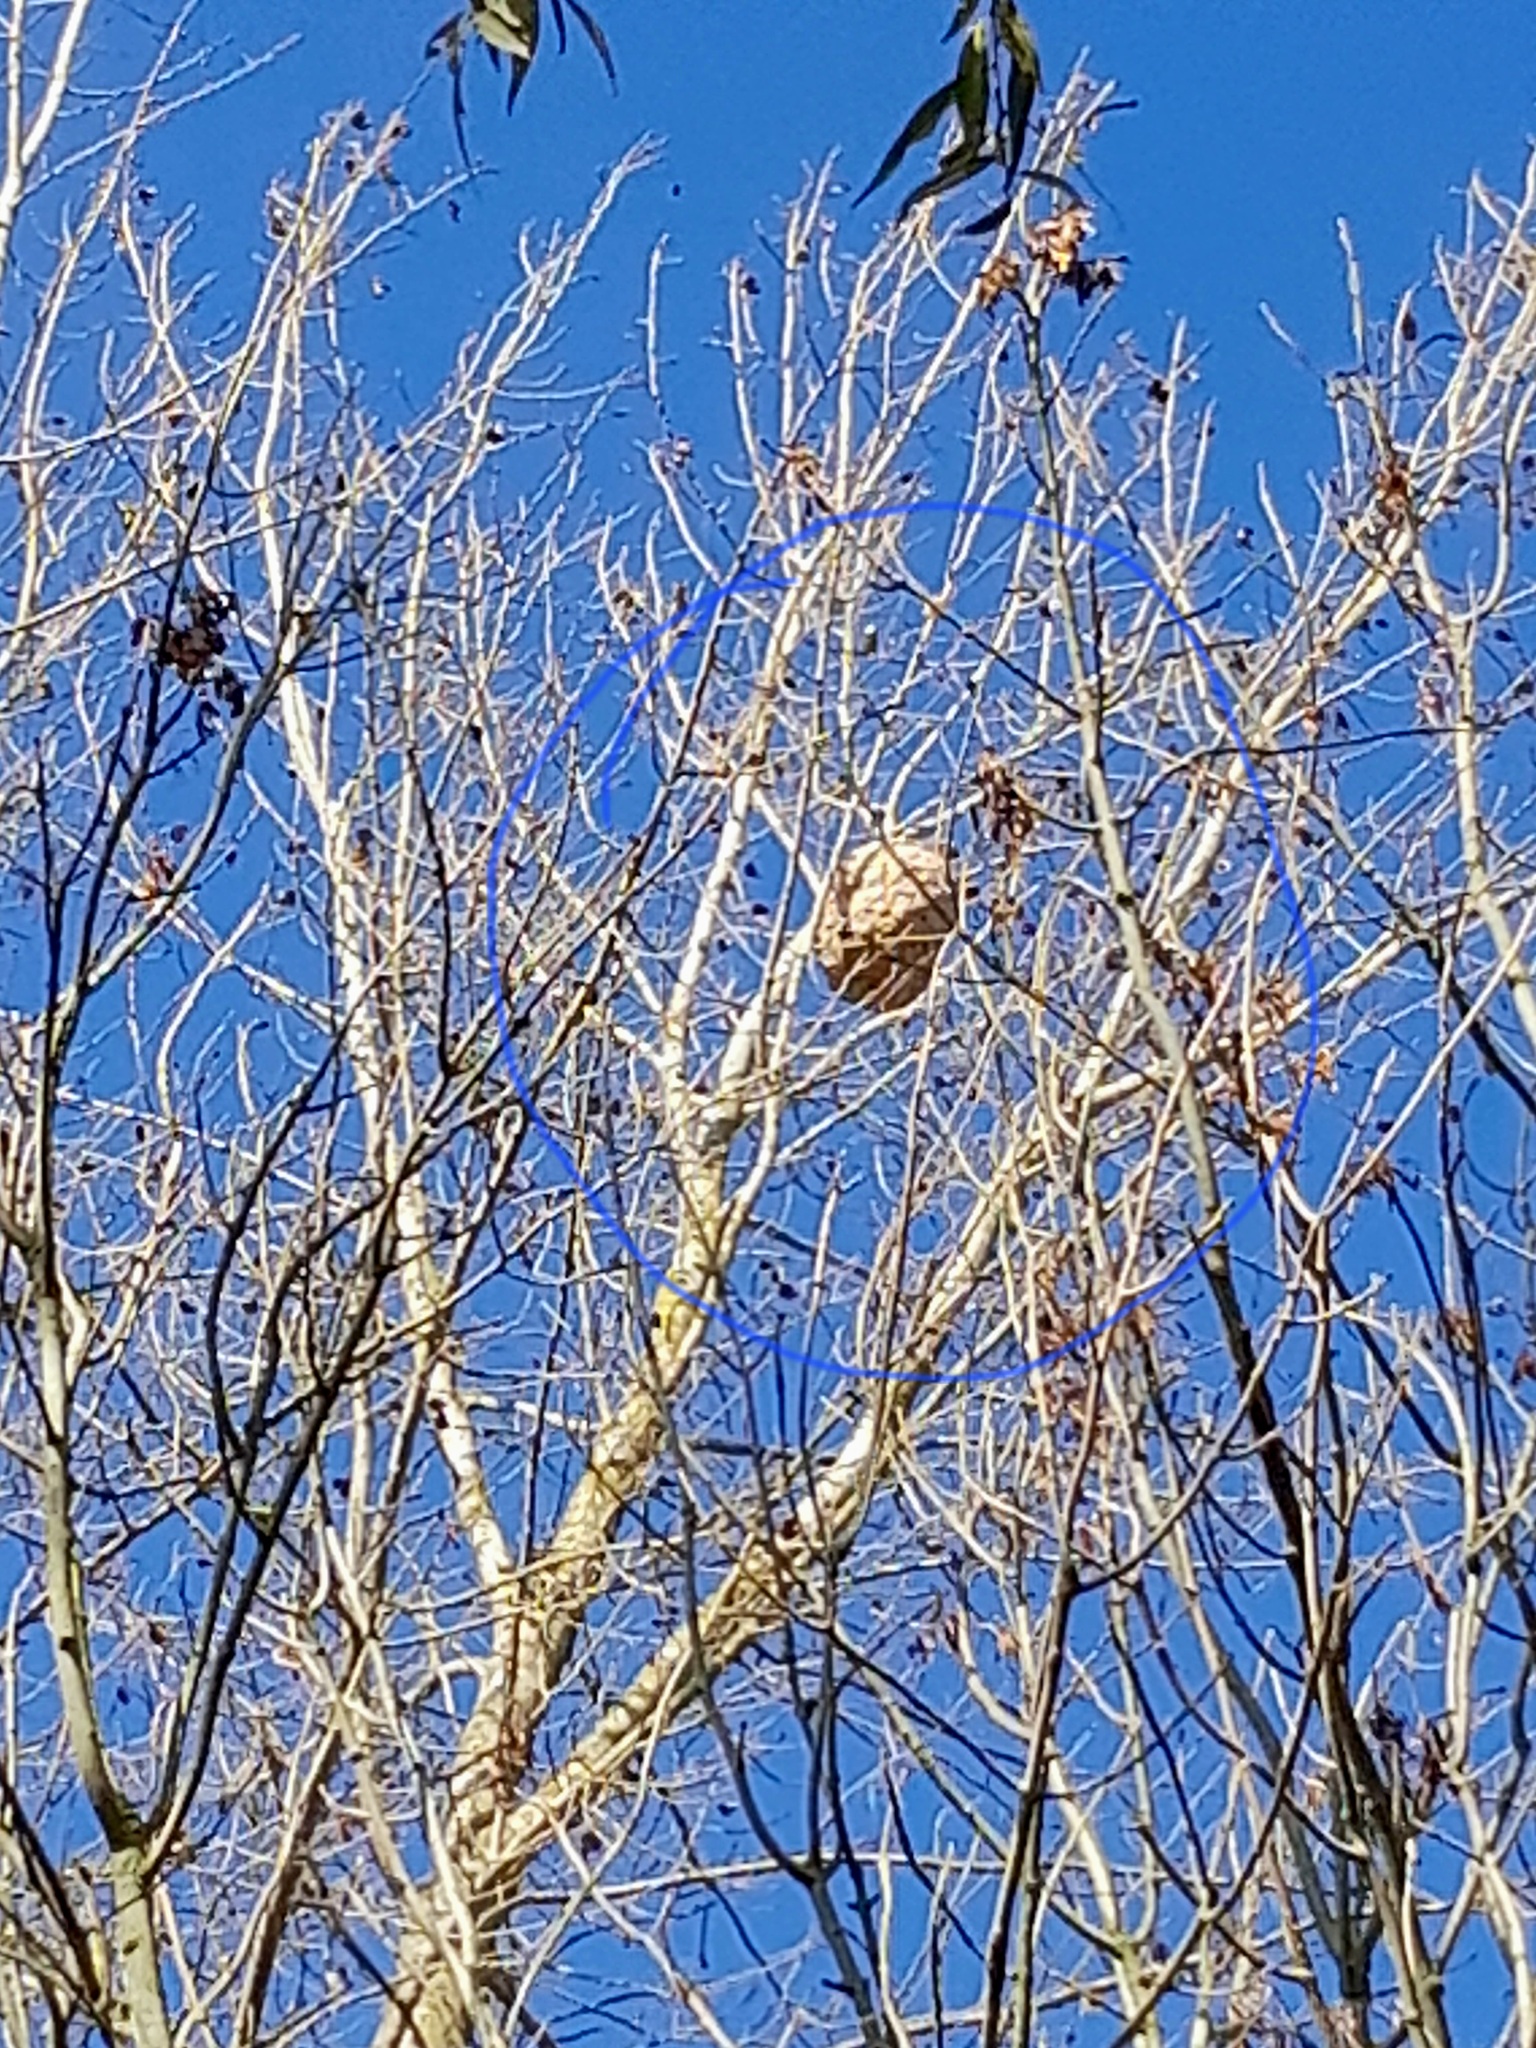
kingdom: Animalia
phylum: Arthropoda
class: Insecta
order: Hymenoptera
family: Vespidae
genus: Vespa
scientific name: Vespa velutina
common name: Asian hornet
